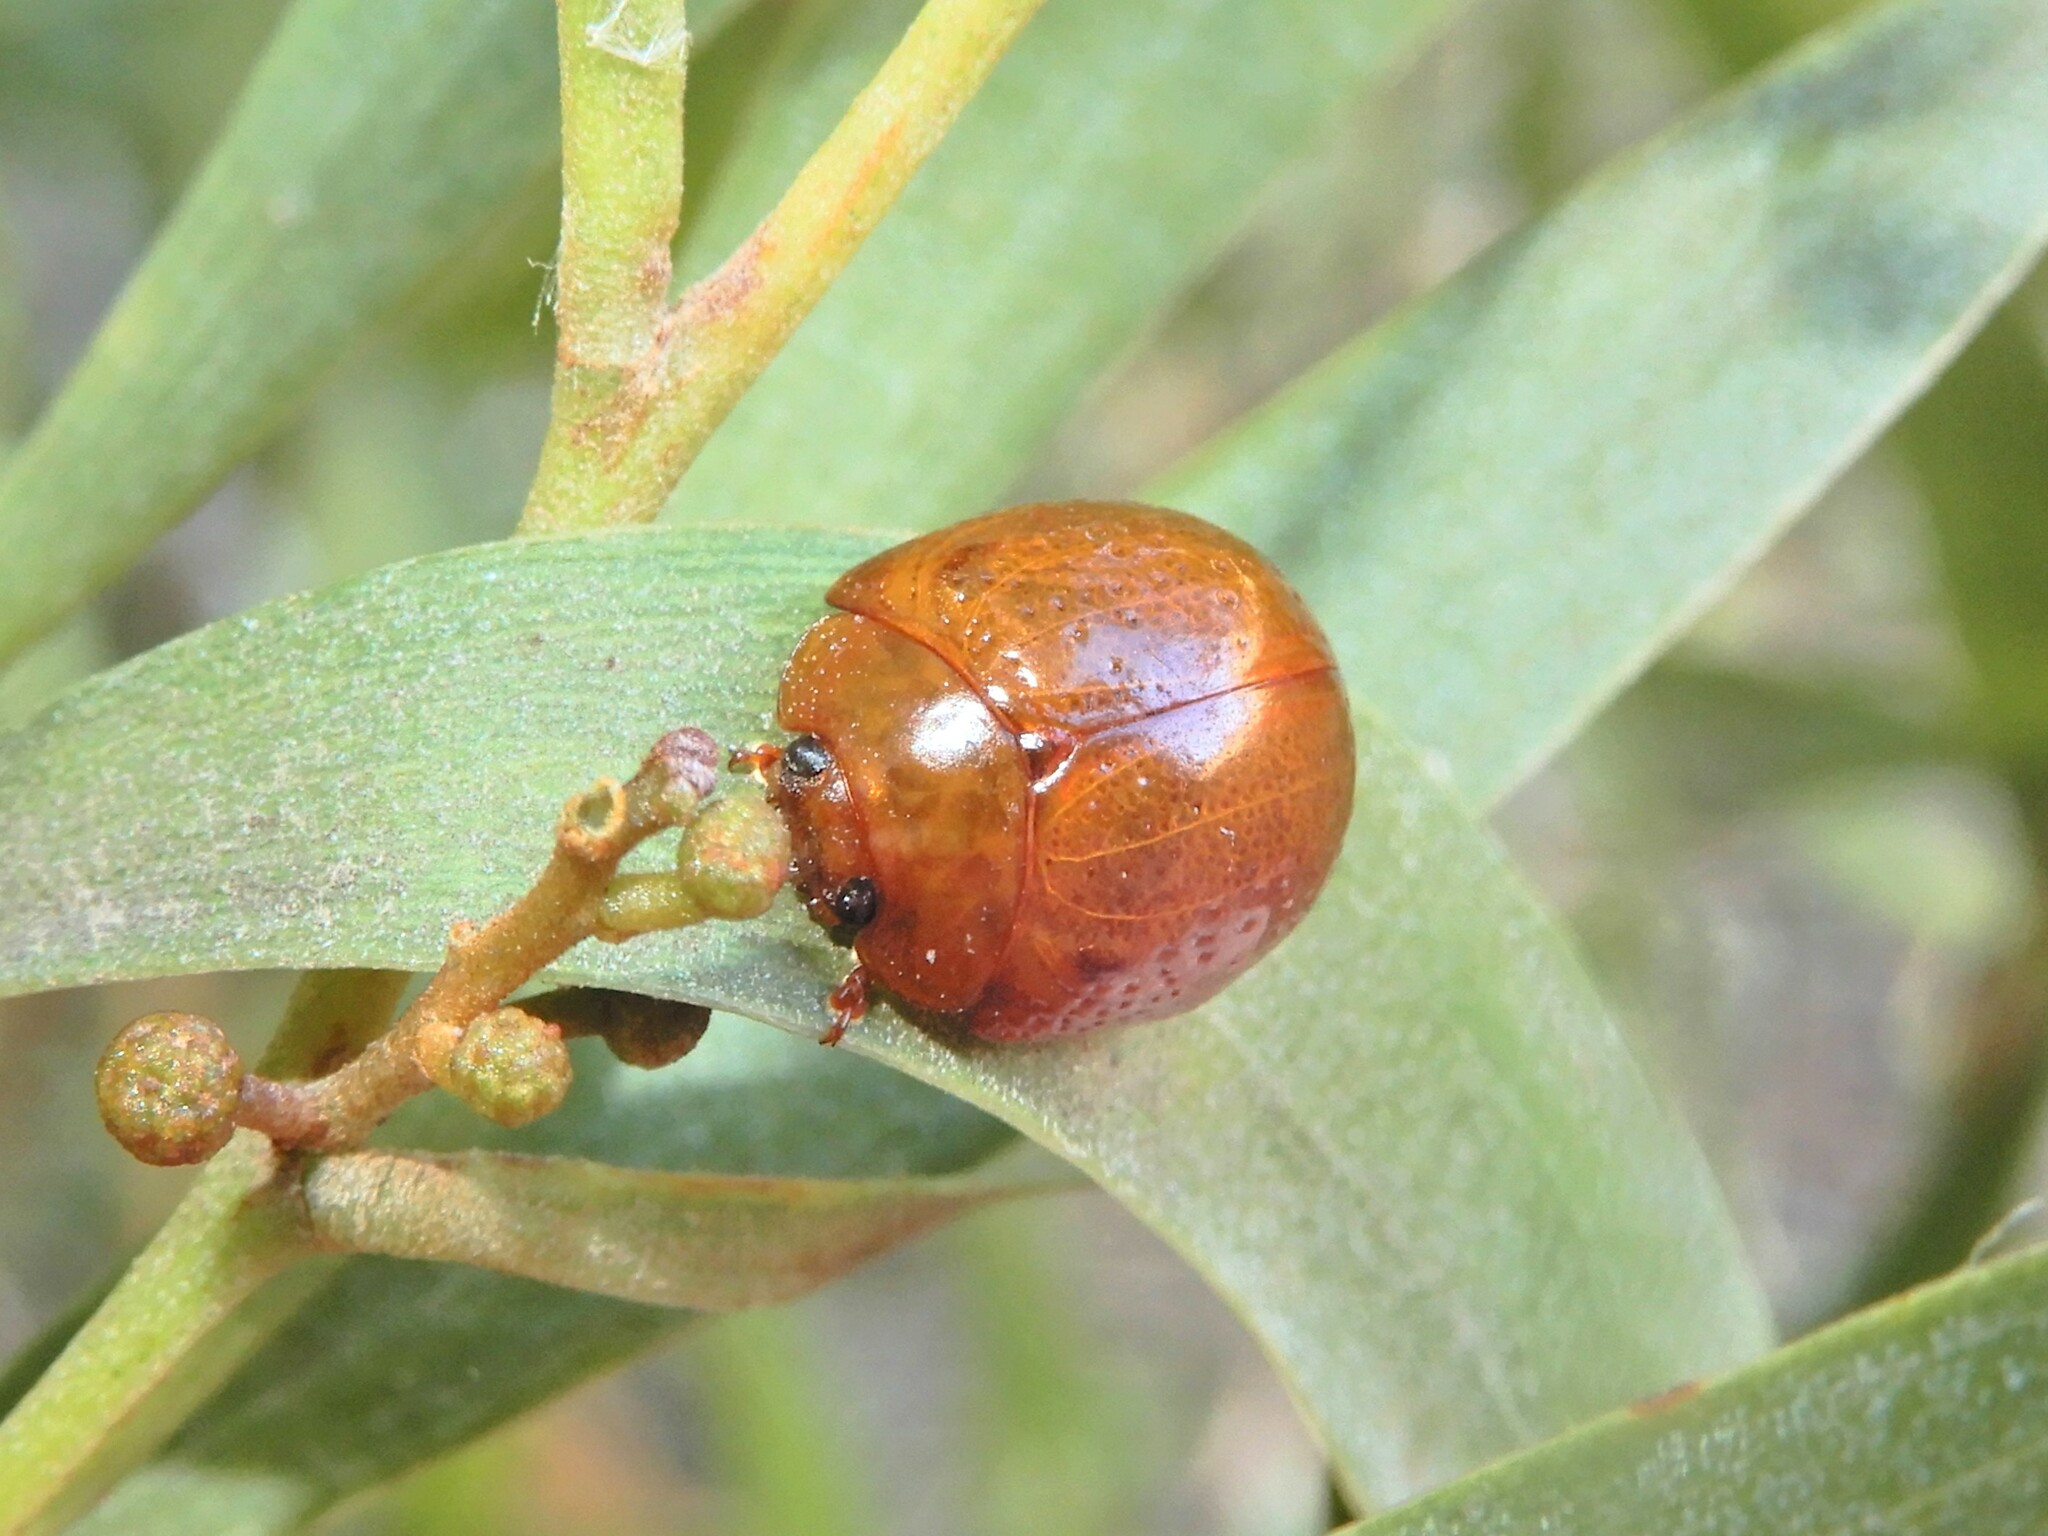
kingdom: Animalia
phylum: Arthropoda
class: Insecta
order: Coleoptera
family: Chrysomelidae
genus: Dicranosterna
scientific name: Dicranosterna
